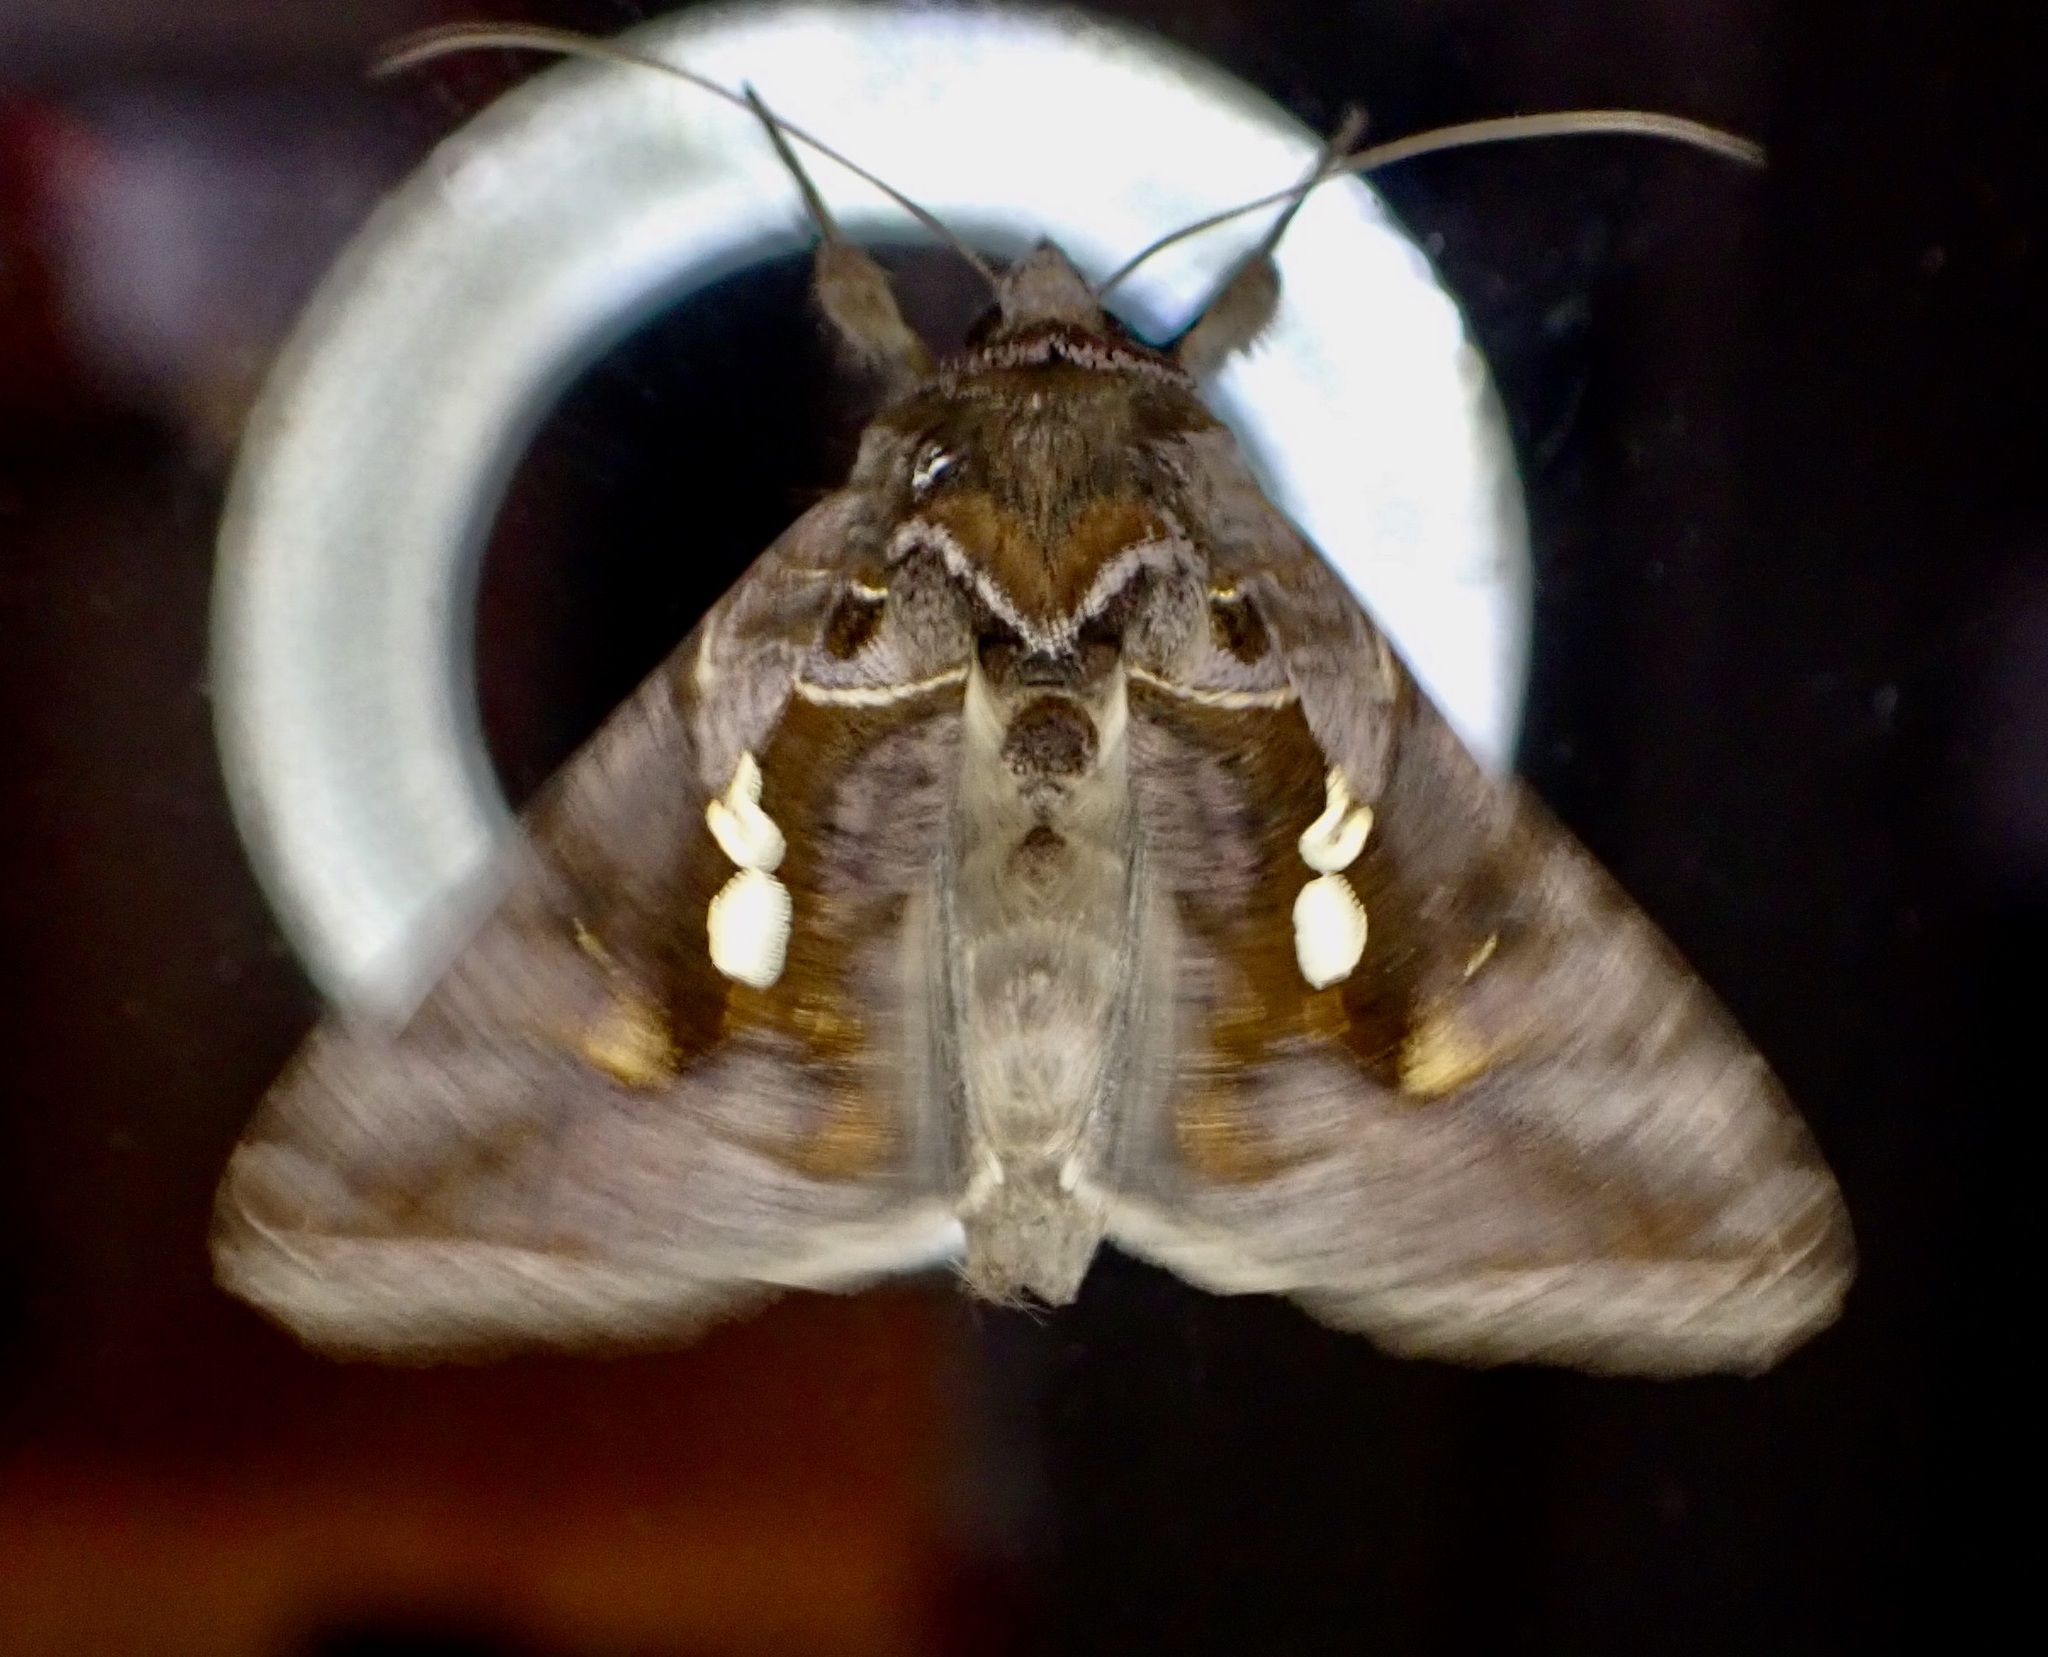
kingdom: Animalia
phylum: Arthropoda
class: Insecta
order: Lepidoptera
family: Noctuidae
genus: Chrysodeixis
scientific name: Chrysodeixis eriosoma
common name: Green garden looper
